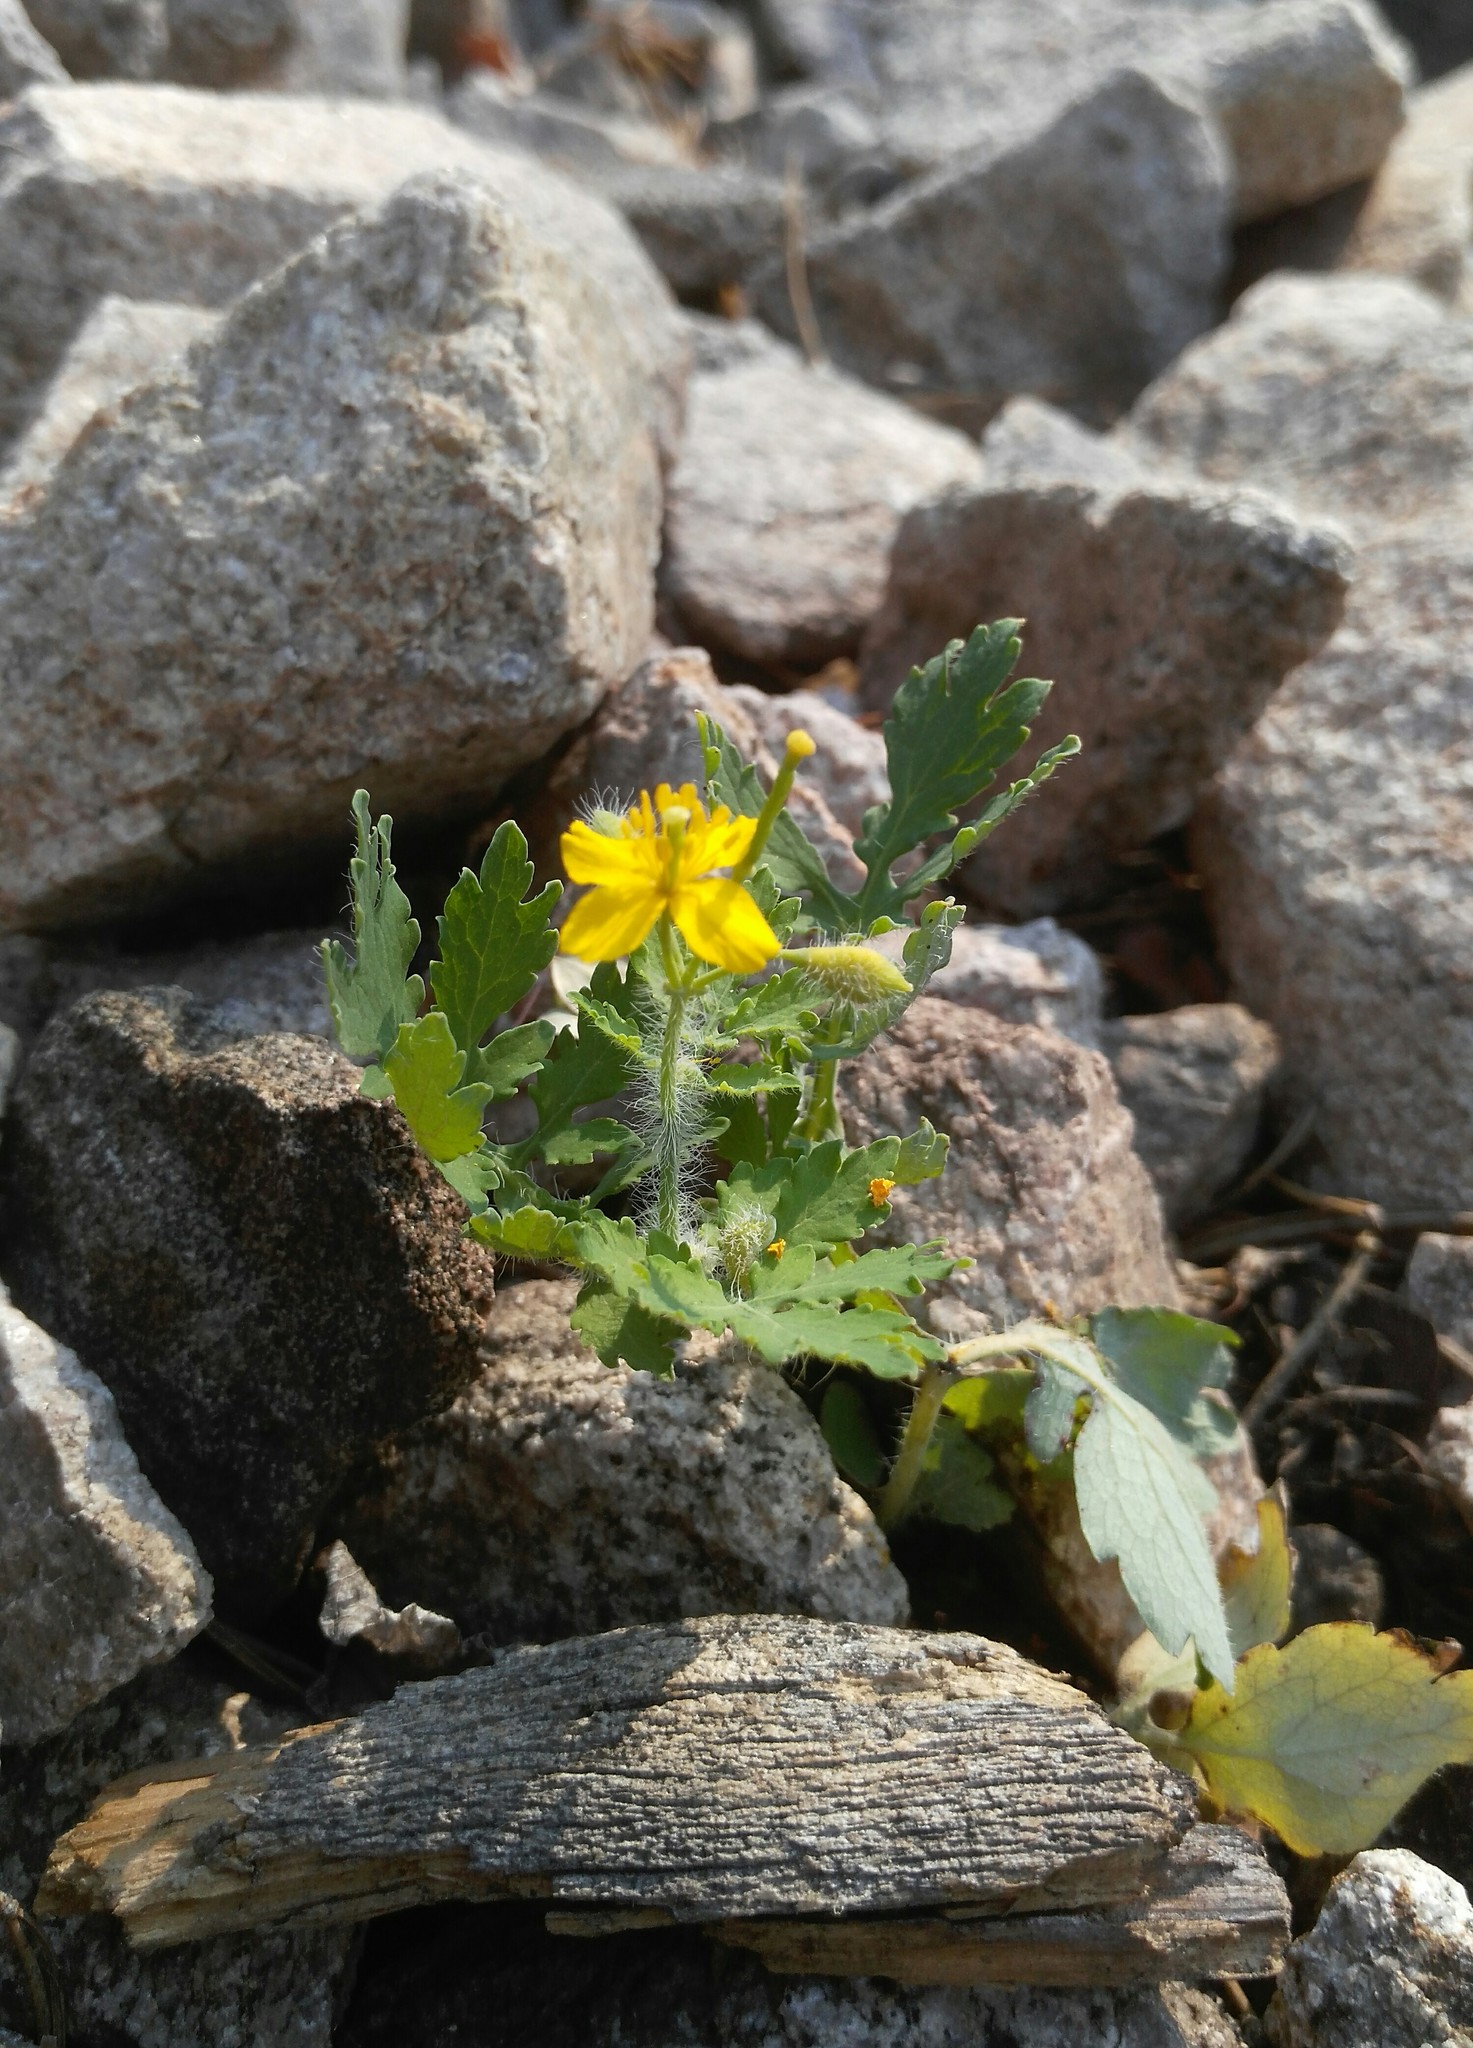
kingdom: Plantae
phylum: Tracheophyta
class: Magnoliopsida
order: Ranunculales
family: Papaveraceae
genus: Chelidonium
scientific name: Chelidonium majus
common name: Greater celandine
